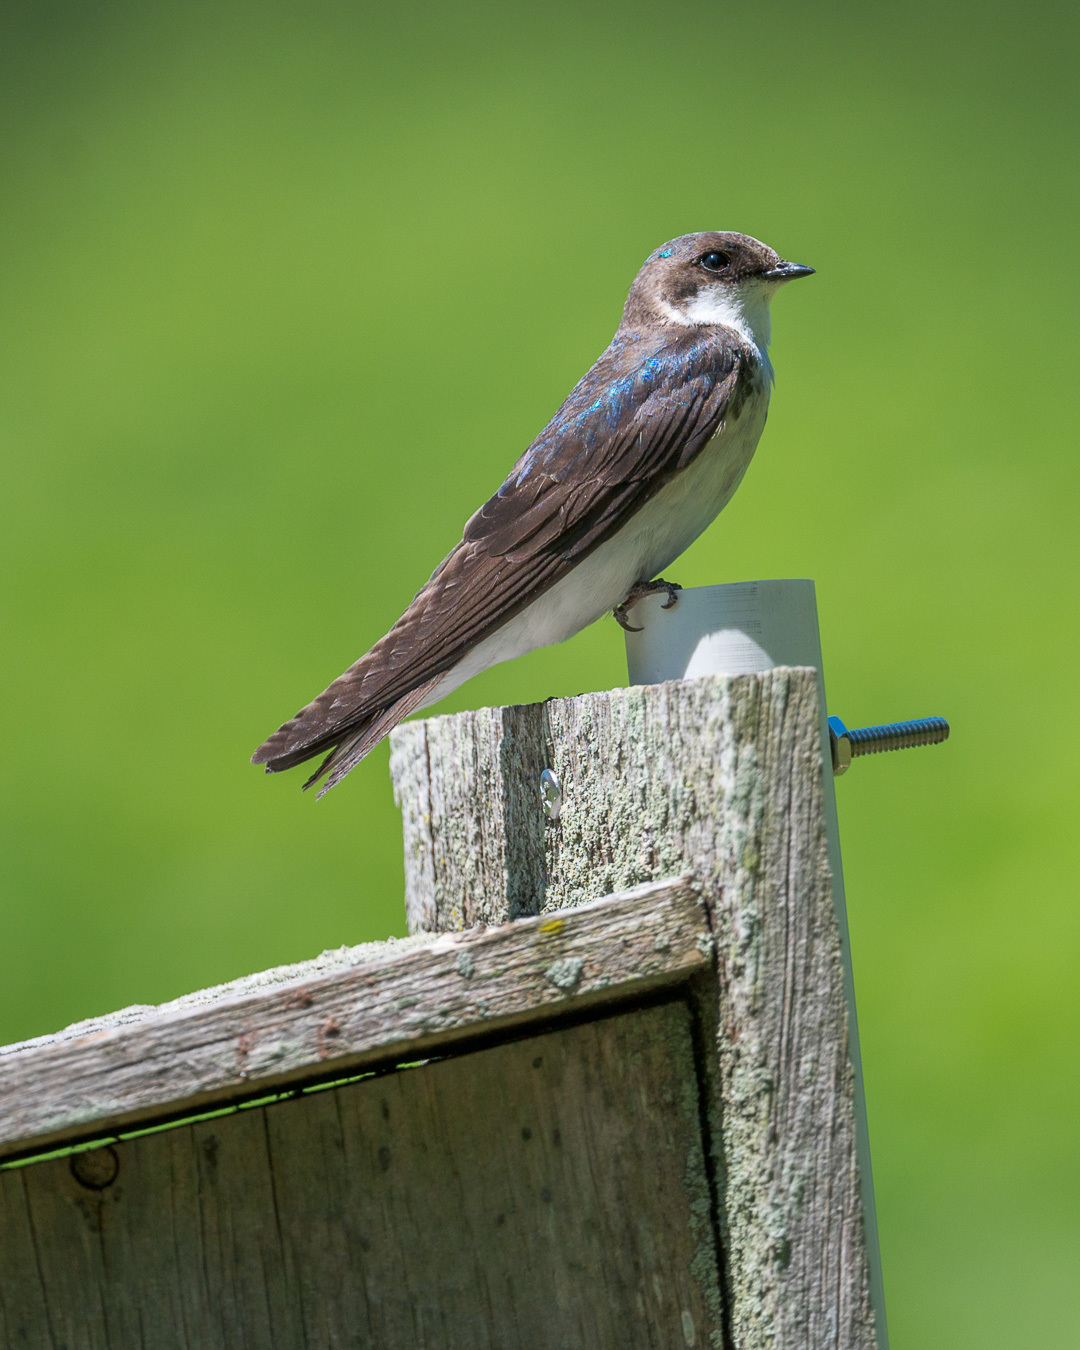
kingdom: Animalia
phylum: Chordata
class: Aves
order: Passeriformes
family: Hirundinidae
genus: Tachycineta
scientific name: Tachycineta bicolor
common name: Tree swallow
